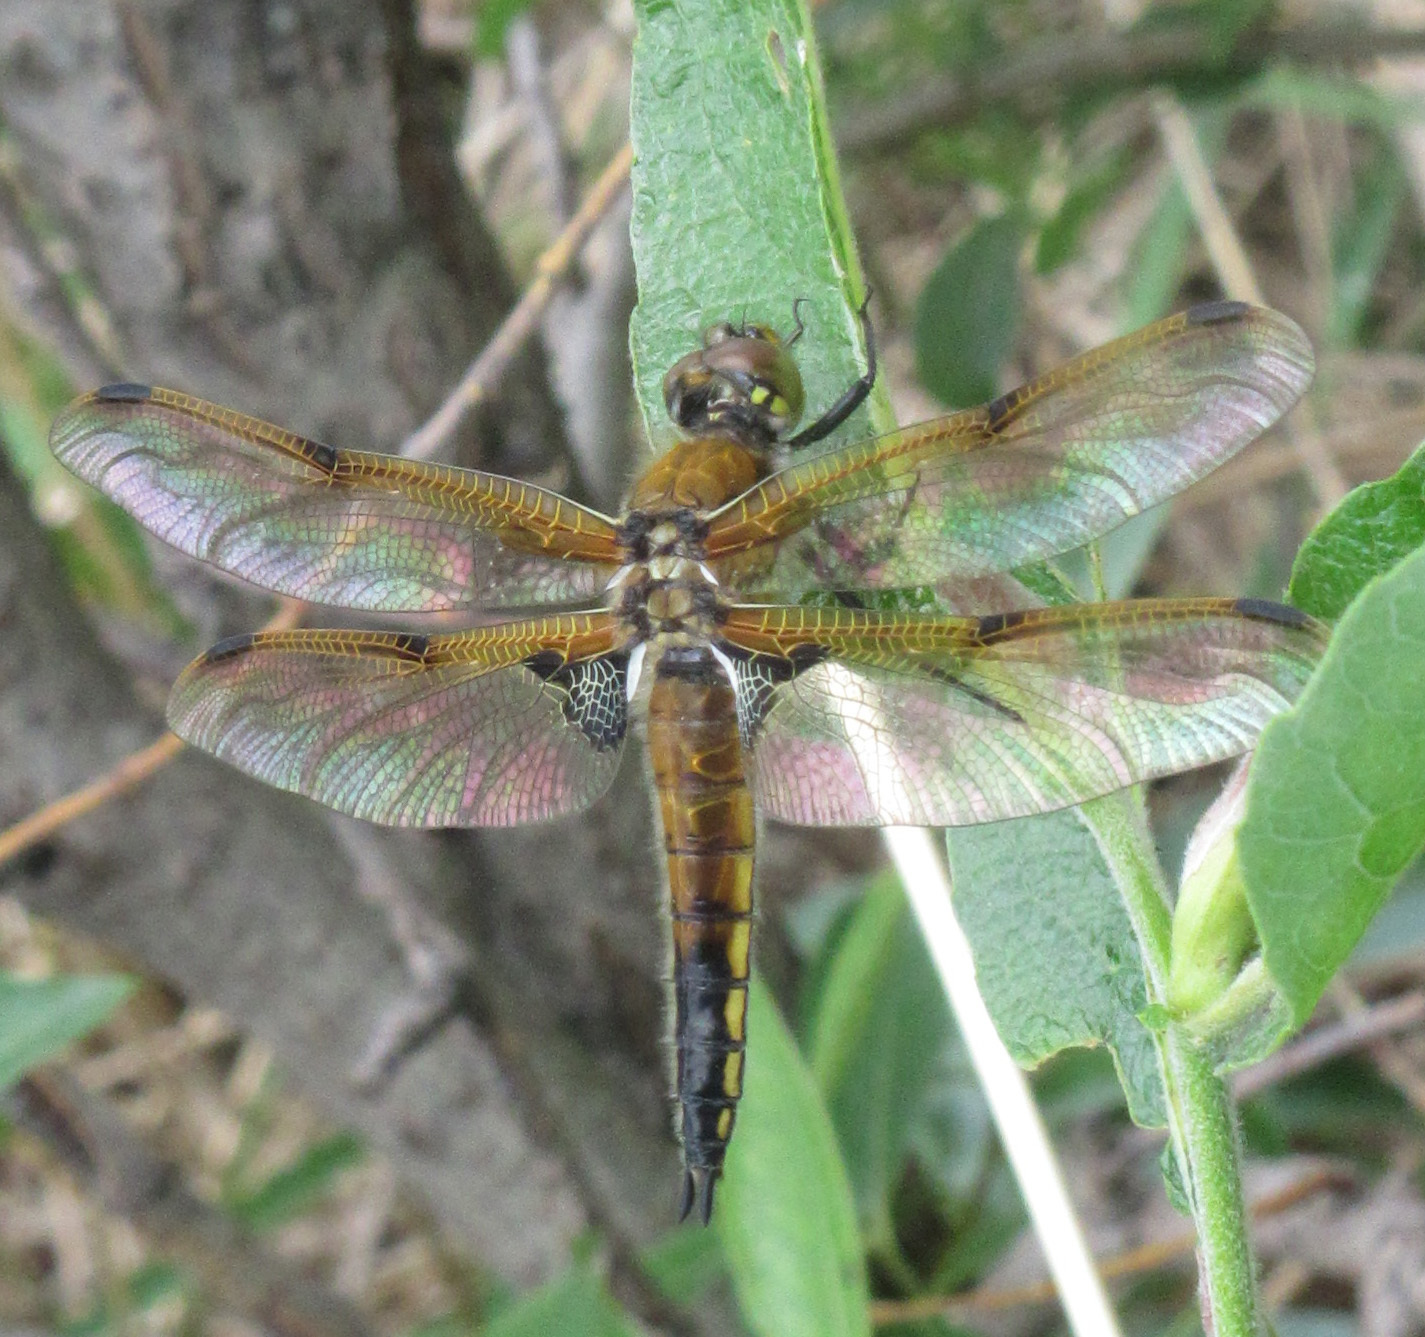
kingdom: Animalia
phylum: Arthropoda
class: Insecta
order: Odonata
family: Libellulidae
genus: Libellula
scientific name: Libellula quadrimaculata
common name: Four-spotted chaser
